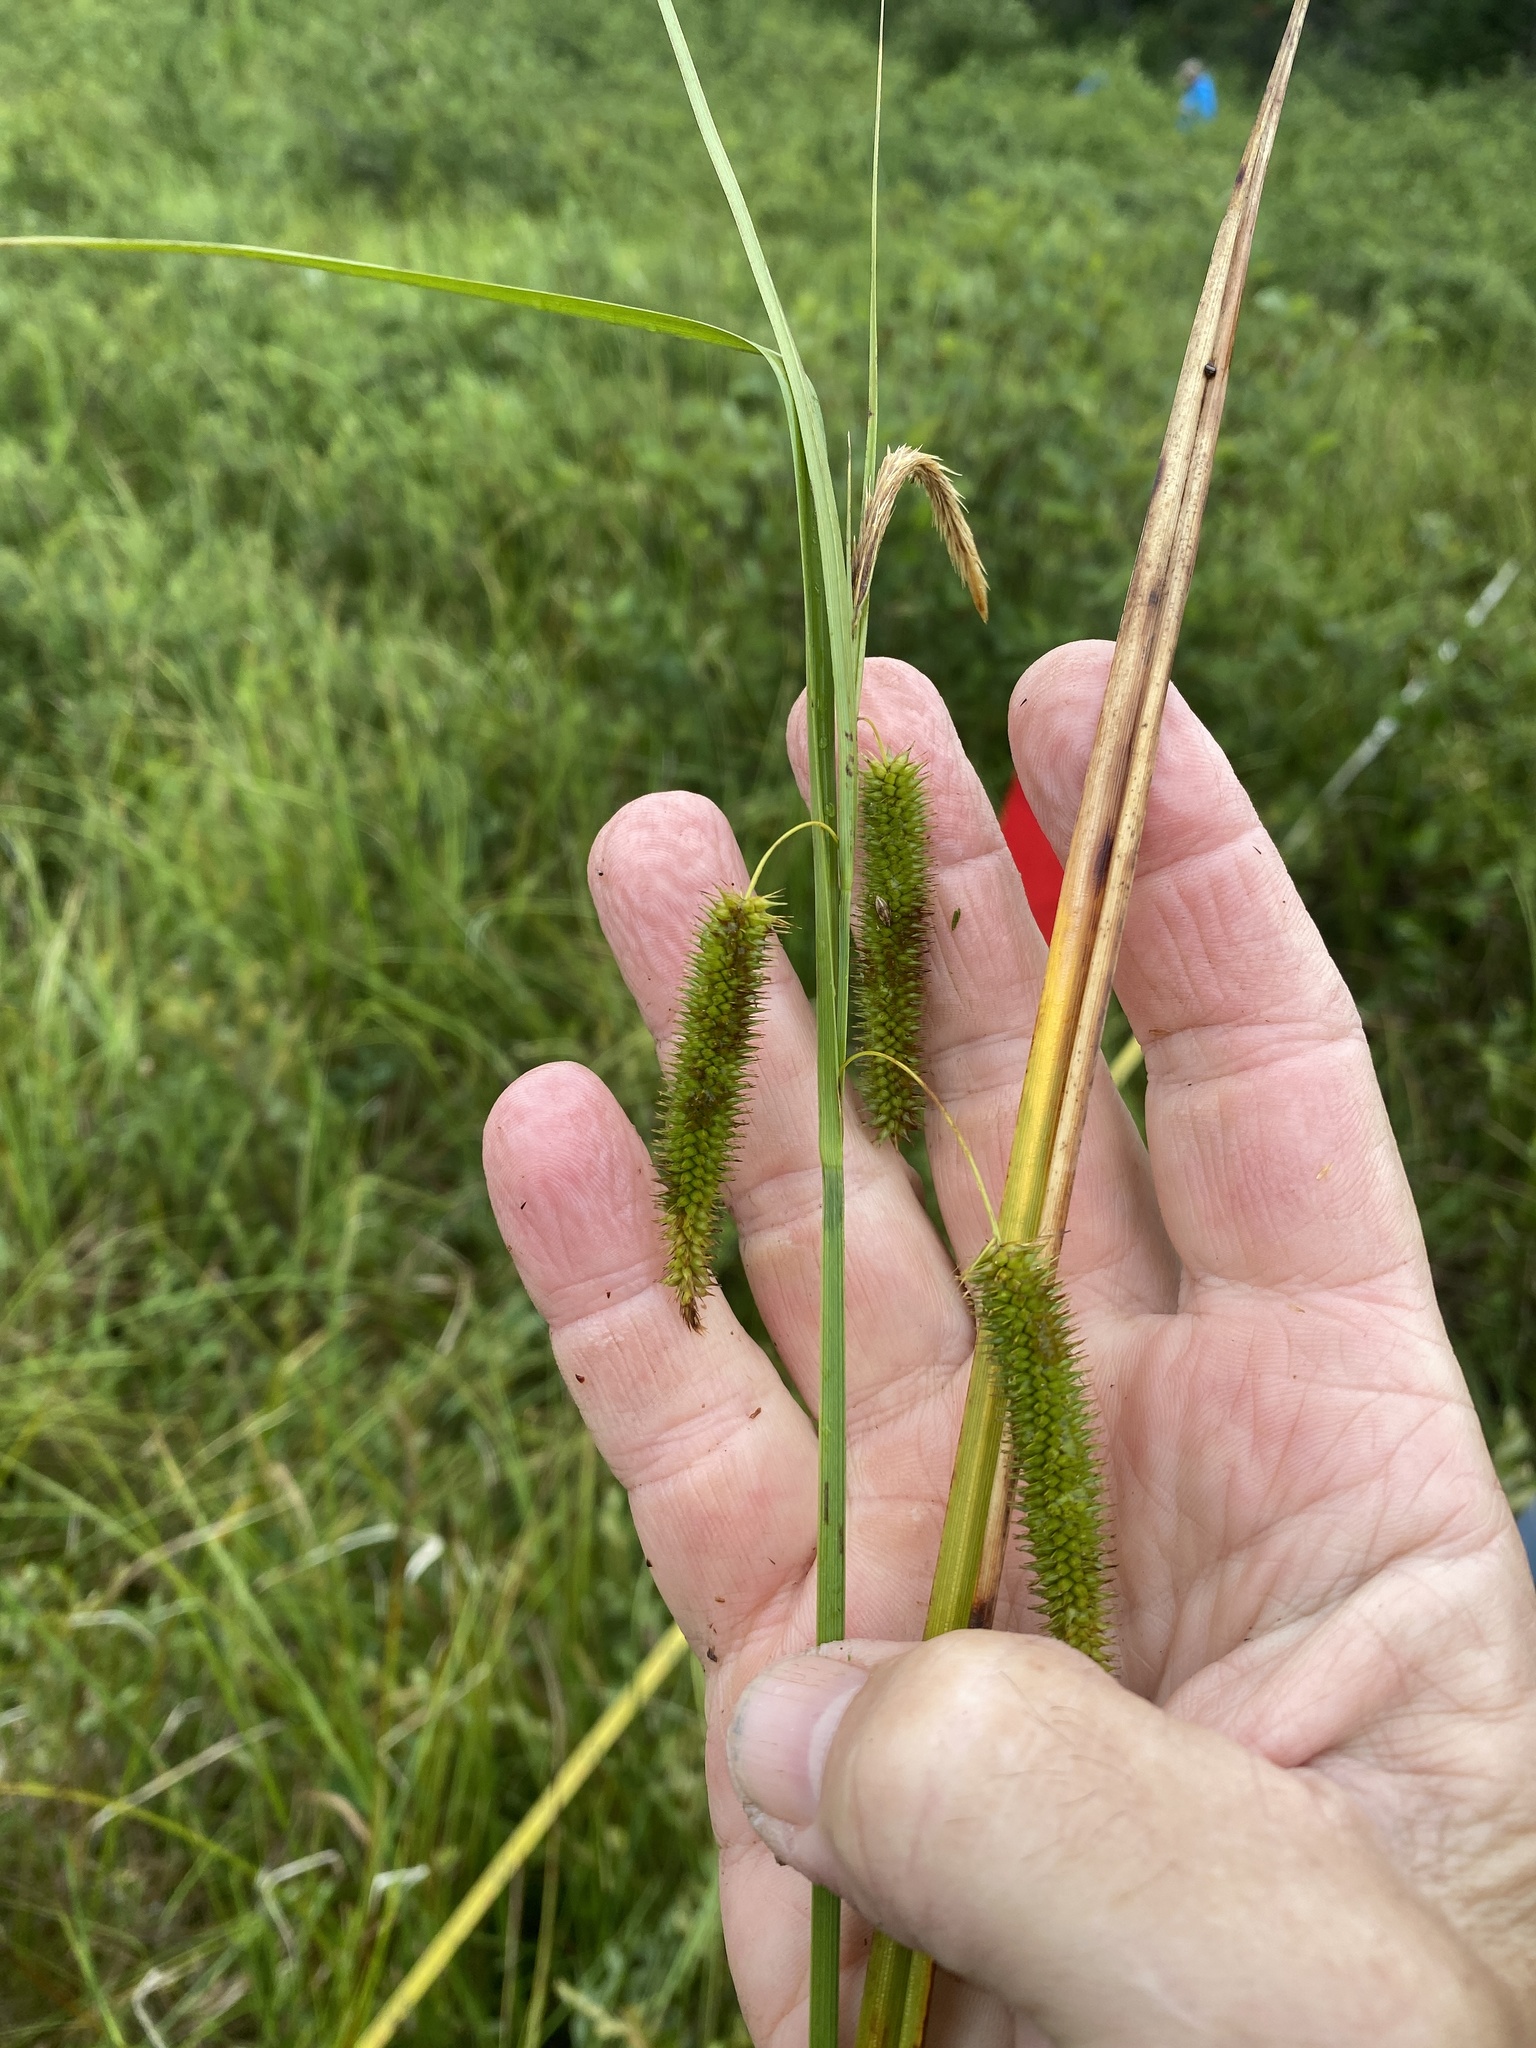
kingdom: Plantae
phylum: Tracheophyta
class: Liliopsida
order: Poales
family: Cyperaceae
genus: Carex
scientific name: Carex pseudocyperus
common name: Cyperus sedge
